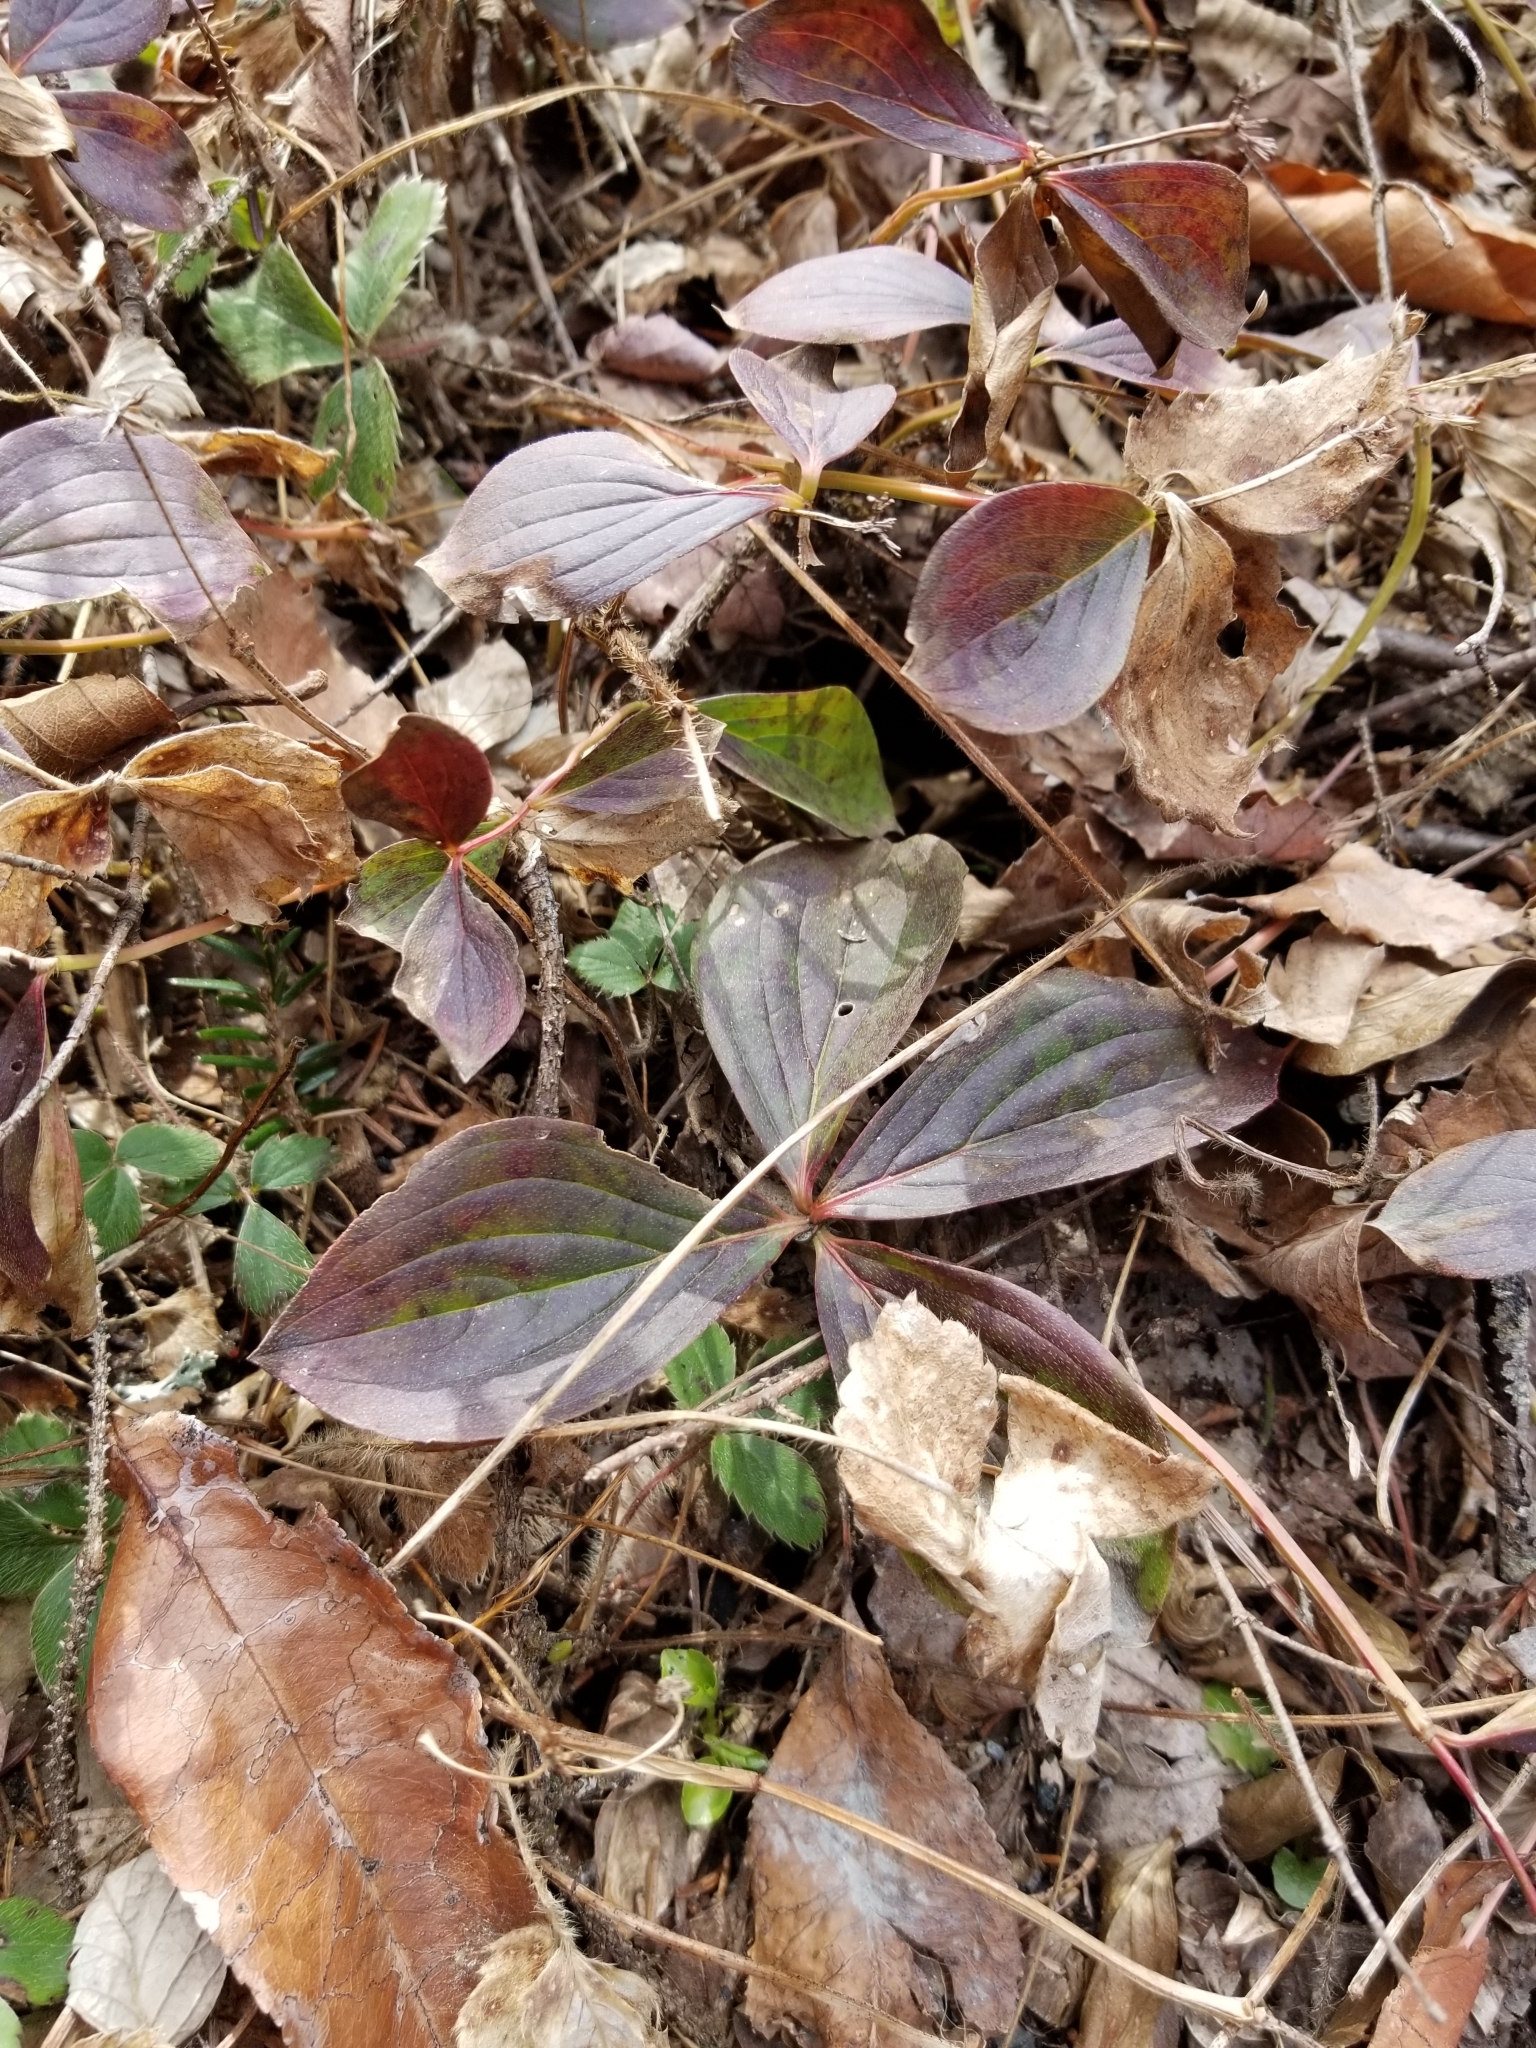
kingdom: Plantae
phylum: Tracheophyta
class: Magnoliopsida
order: Cornales
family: Cornaceae
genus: Cornus
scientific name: Cornus canadensis
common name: Creeping dogwood
